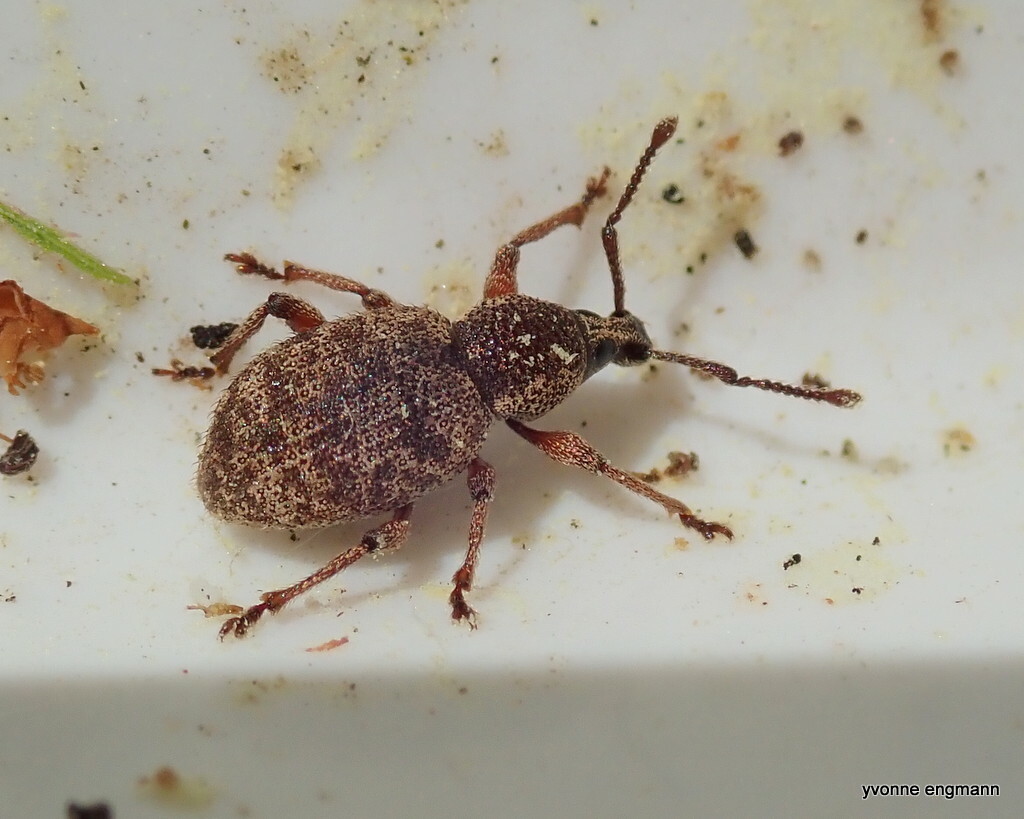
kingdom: Animalia
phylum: Arthropoda
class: Insecta
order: Coleoptera
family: Curculionidae
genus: Otiorhynchus
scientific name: Otiorhynchus singularis
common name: Clay-coloured weevil
